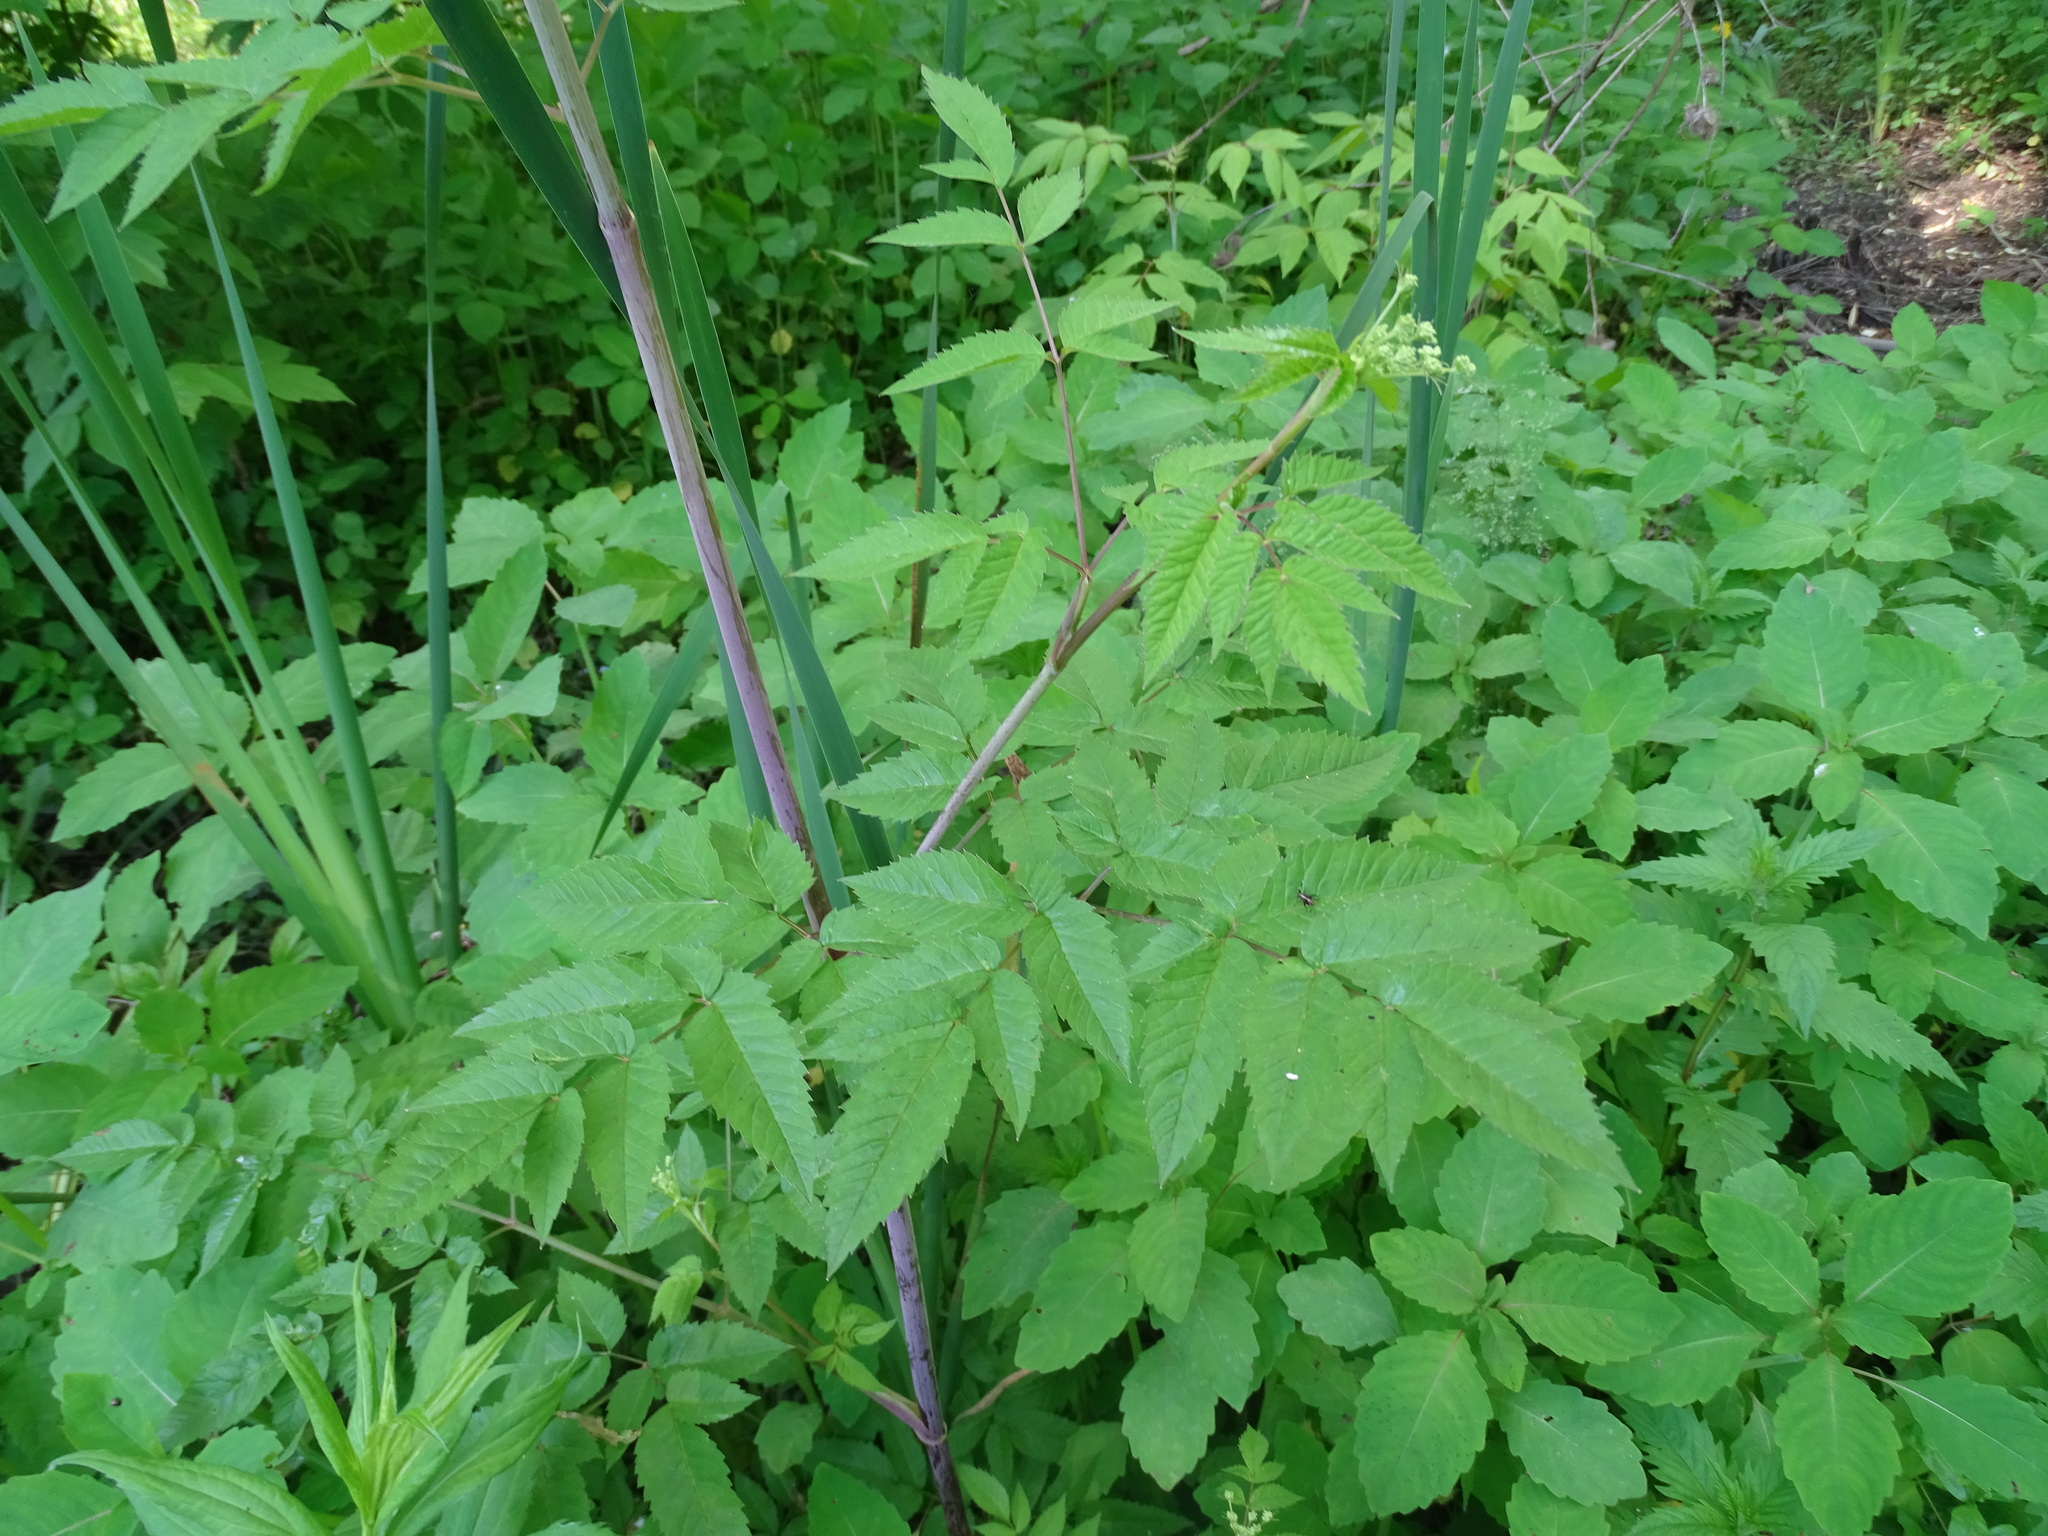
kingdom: Plantae
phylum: Tracheophyta
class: Magnoliopsida
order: Apiales
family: Apiaceae
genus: Cicuta
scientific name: Cicuta maculata
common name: Spotted cowbane
